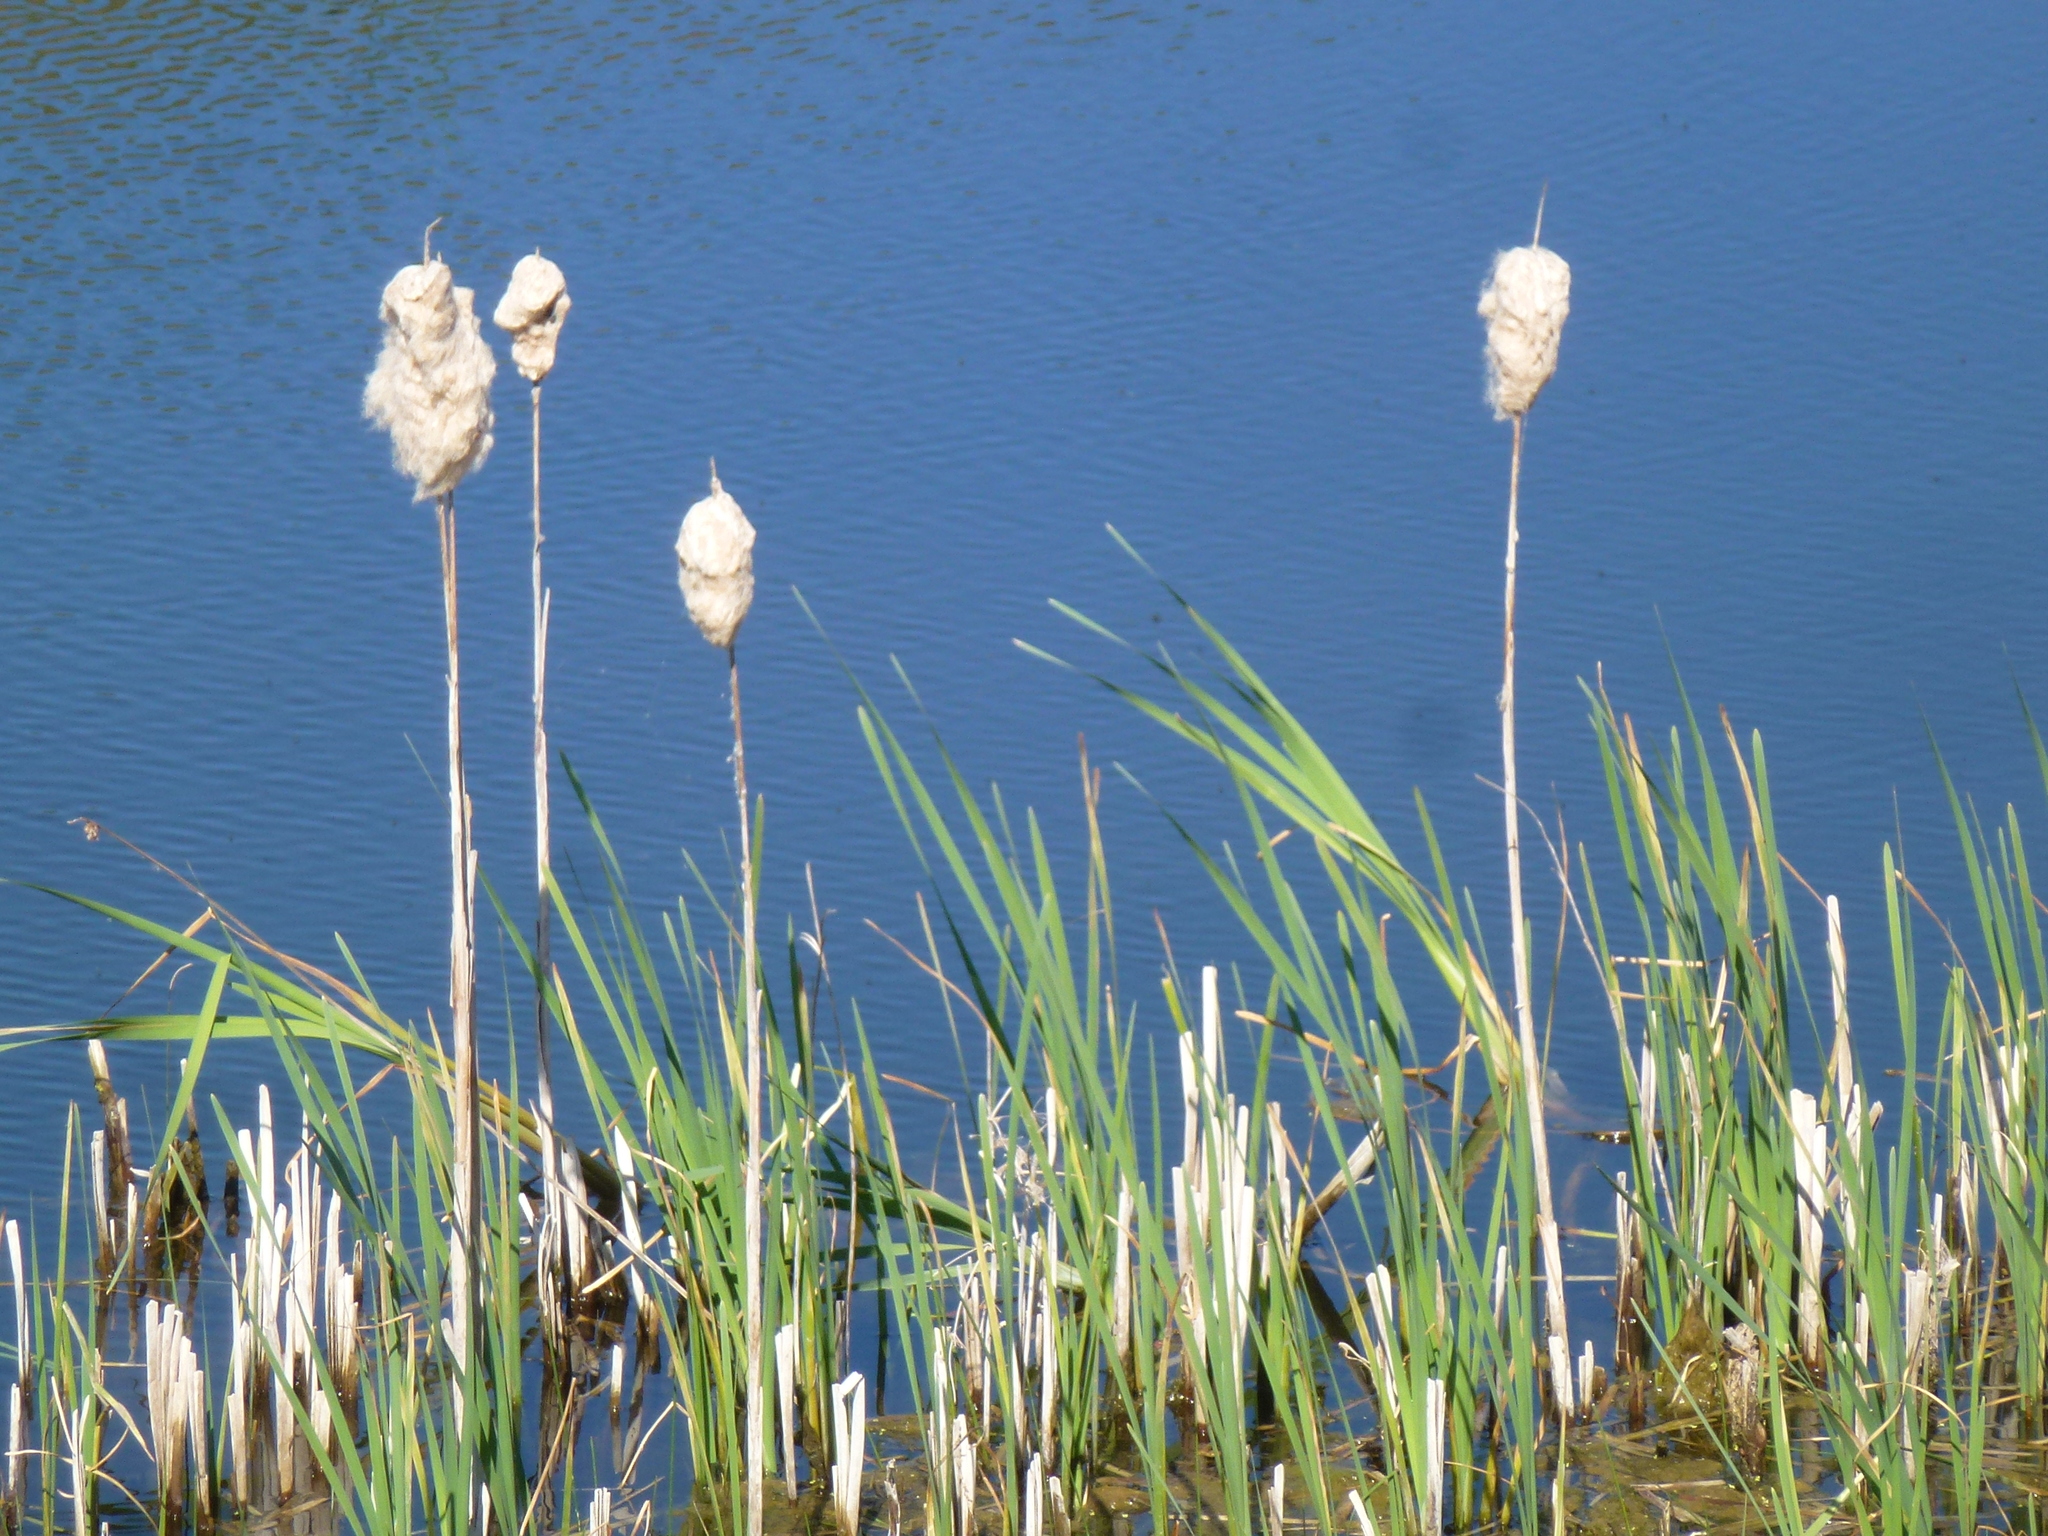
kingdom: Plantae
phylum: Tracheophyta
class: Liliopsida
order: Poales
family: Typhaceae
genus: Typha
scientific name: Typha latifolia
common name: Broadleaf cattail
